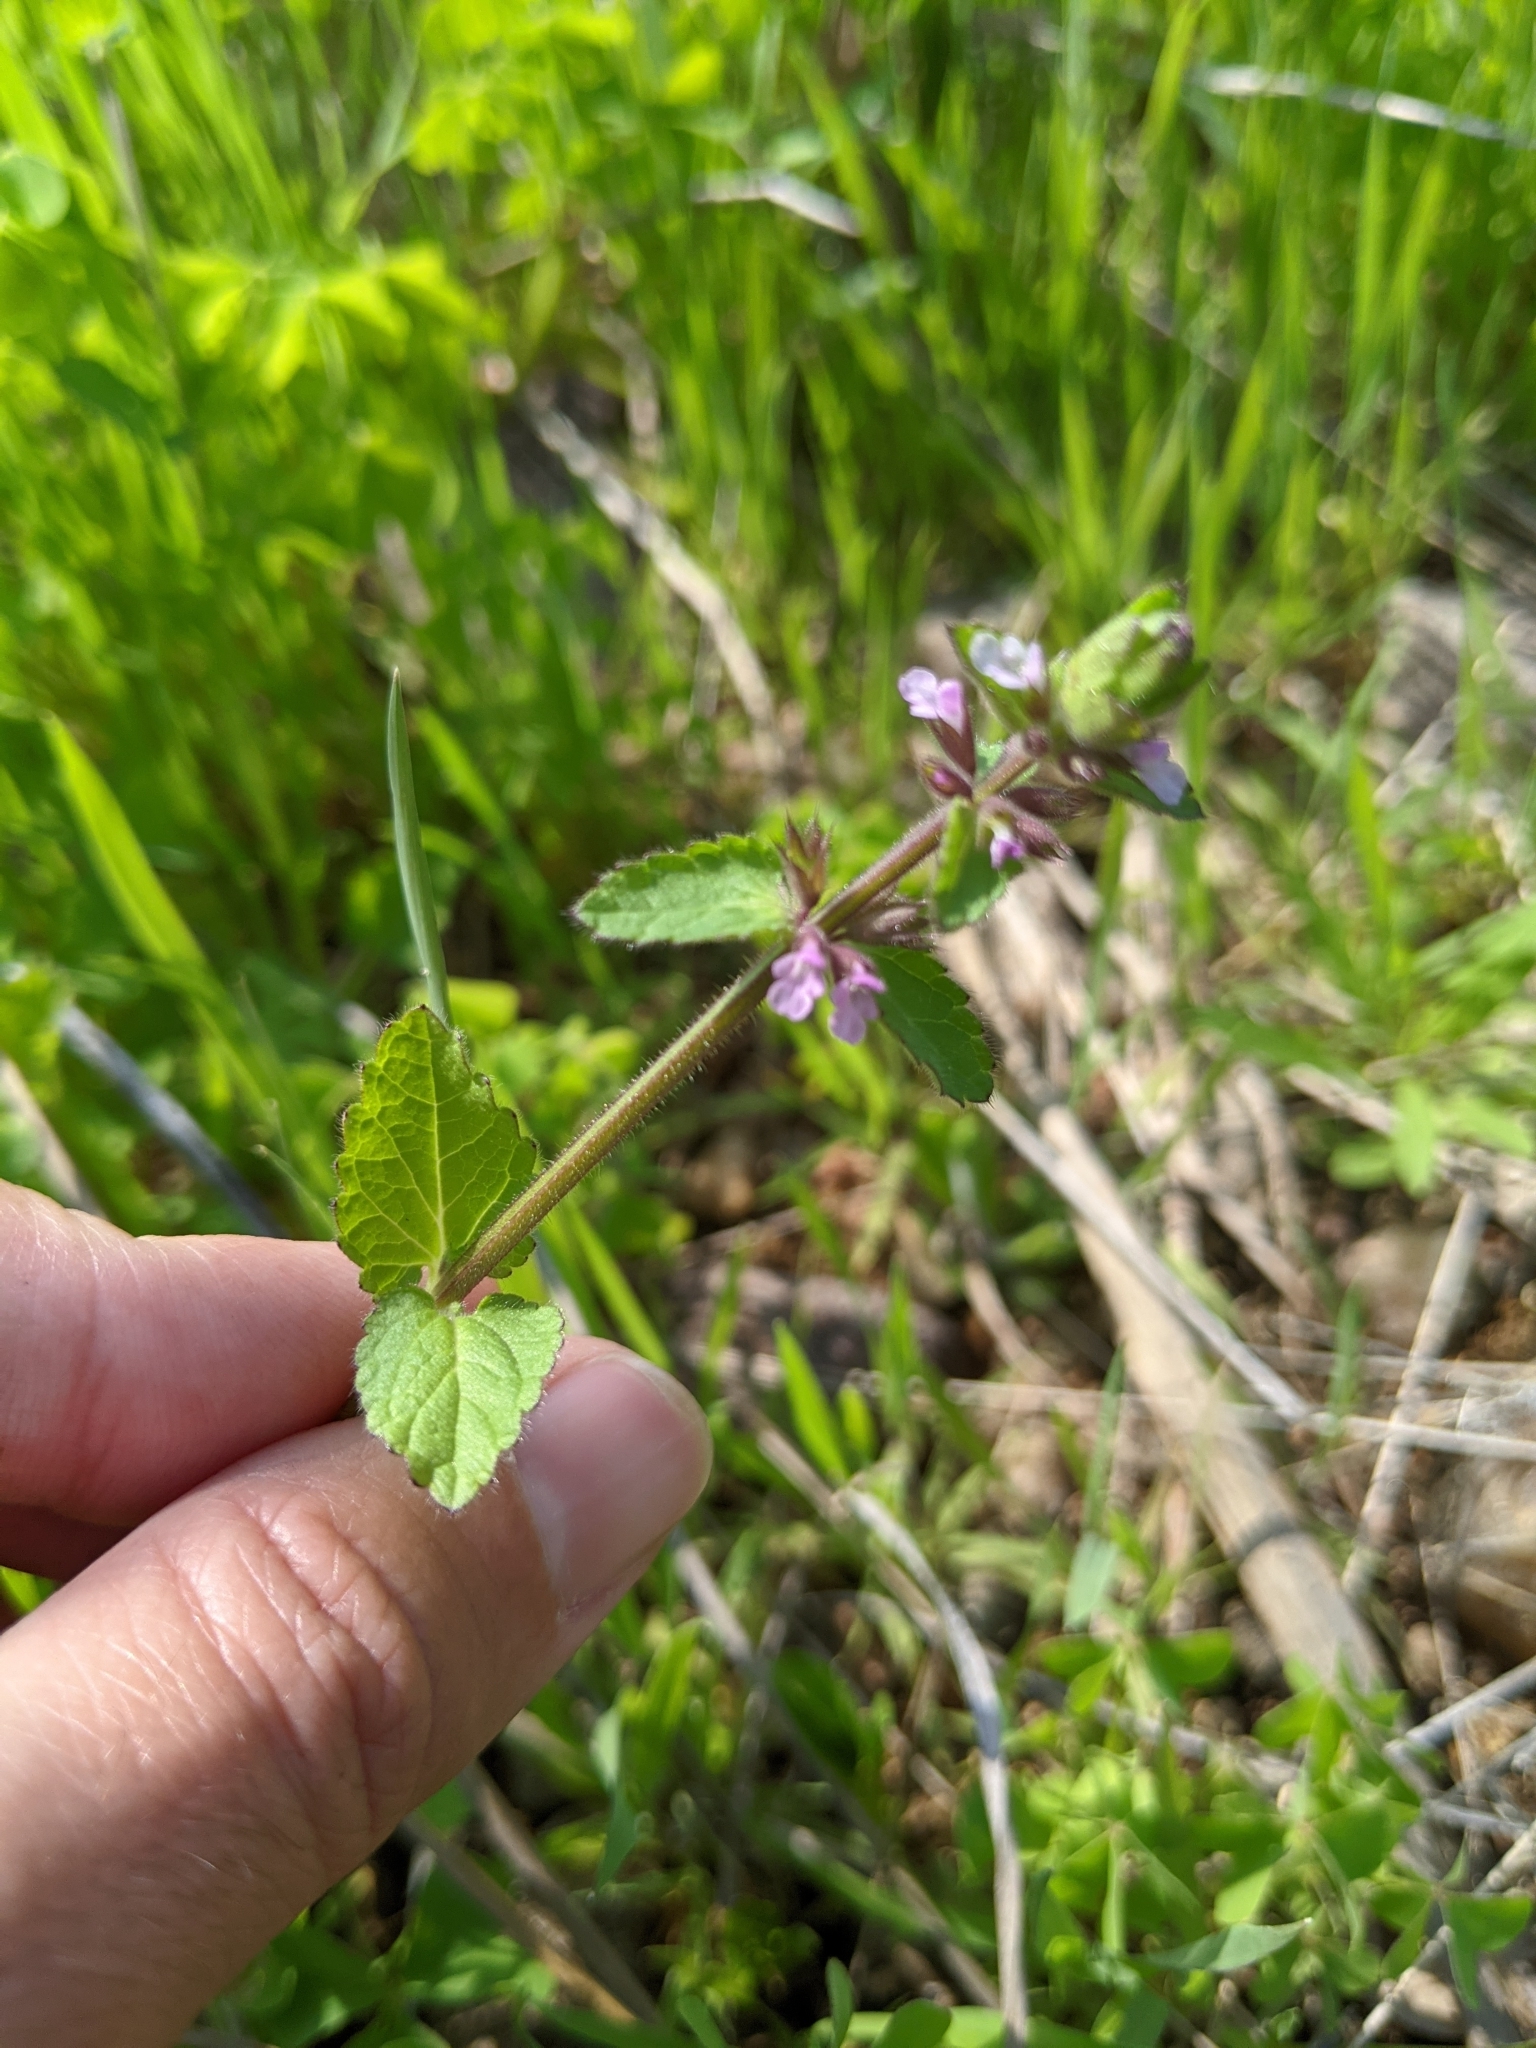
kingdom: Plantae
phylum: Tracheophyta
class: Magnoliopsida
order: Lamiales
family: Lamiaceae
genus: Stachys
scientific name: Stachys
